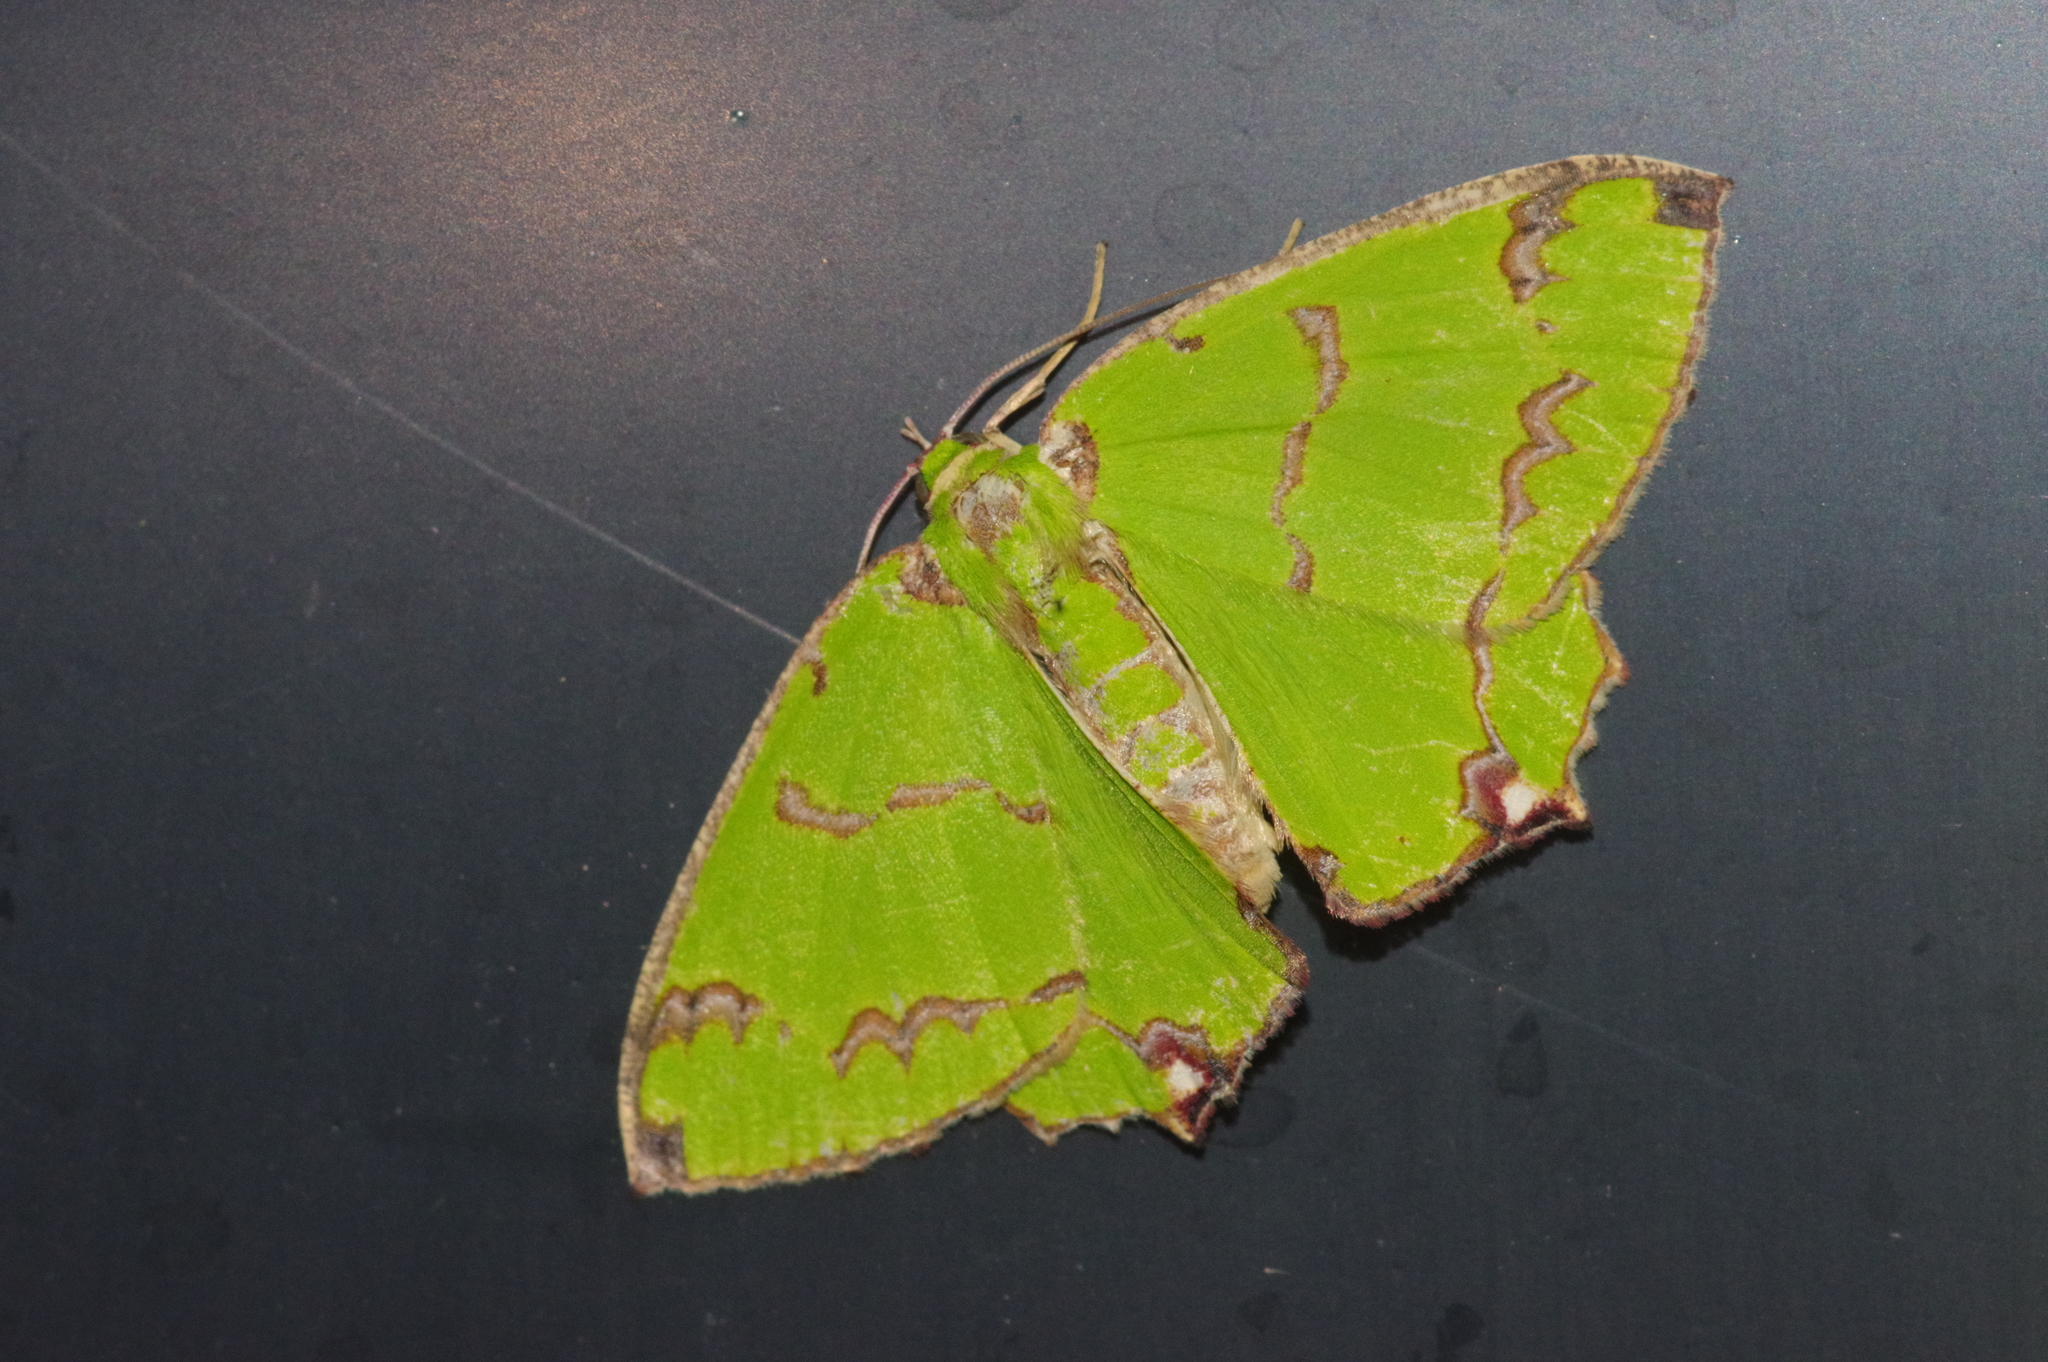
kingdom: Animalia
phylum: Arthropoda
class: Insecta
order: Lepidoptera
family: Geometridae
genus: Agathia
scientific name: Agathia lycaenaria
